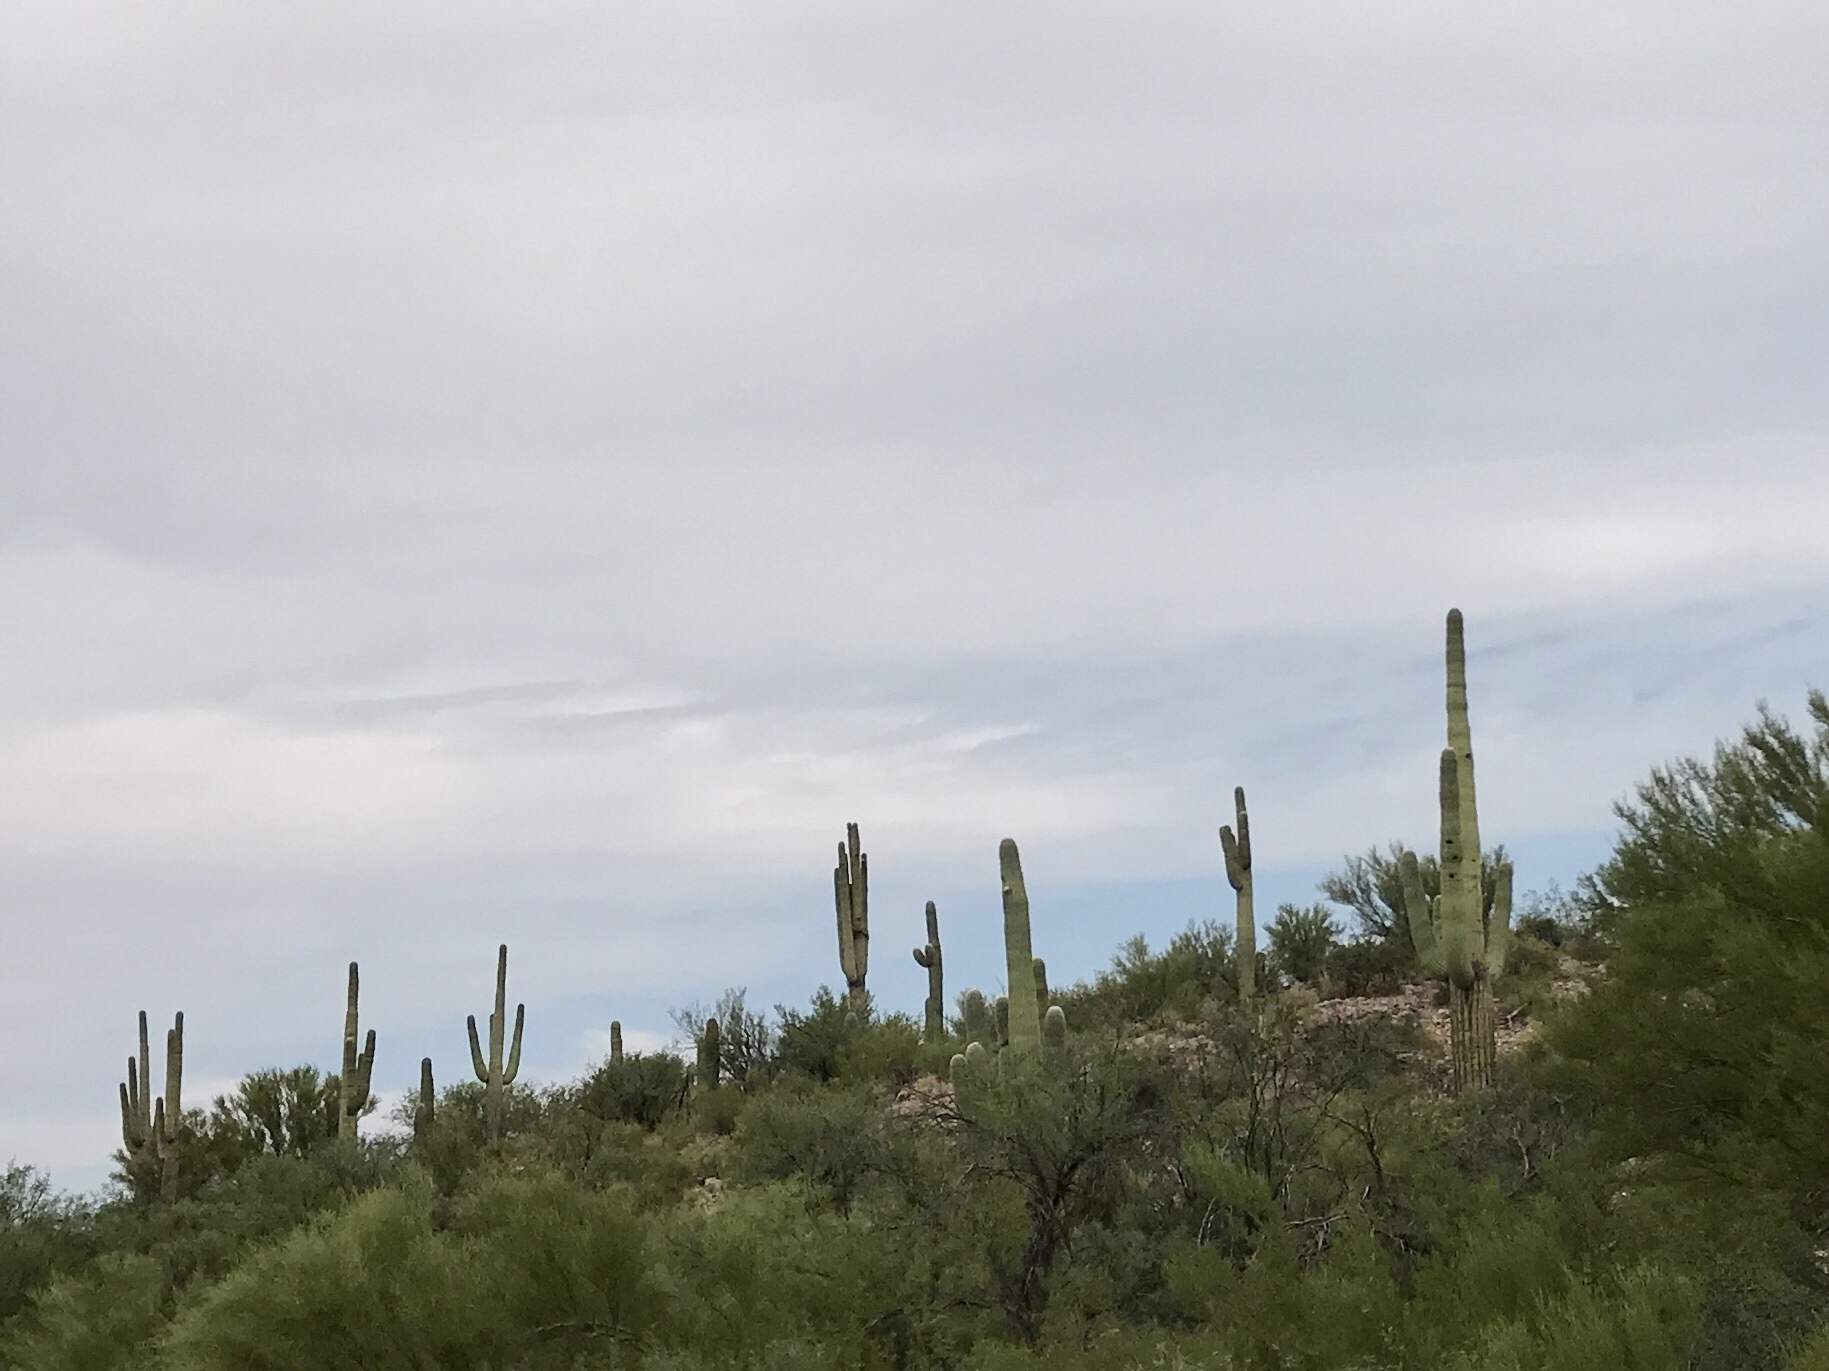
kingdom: Plantae
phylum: Tracheophyta
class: Magnoliopsida
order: Caryophyllales
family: Cactaceae
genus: Carnegiea
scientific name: Carnegiea gigantea
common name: Saguaro
